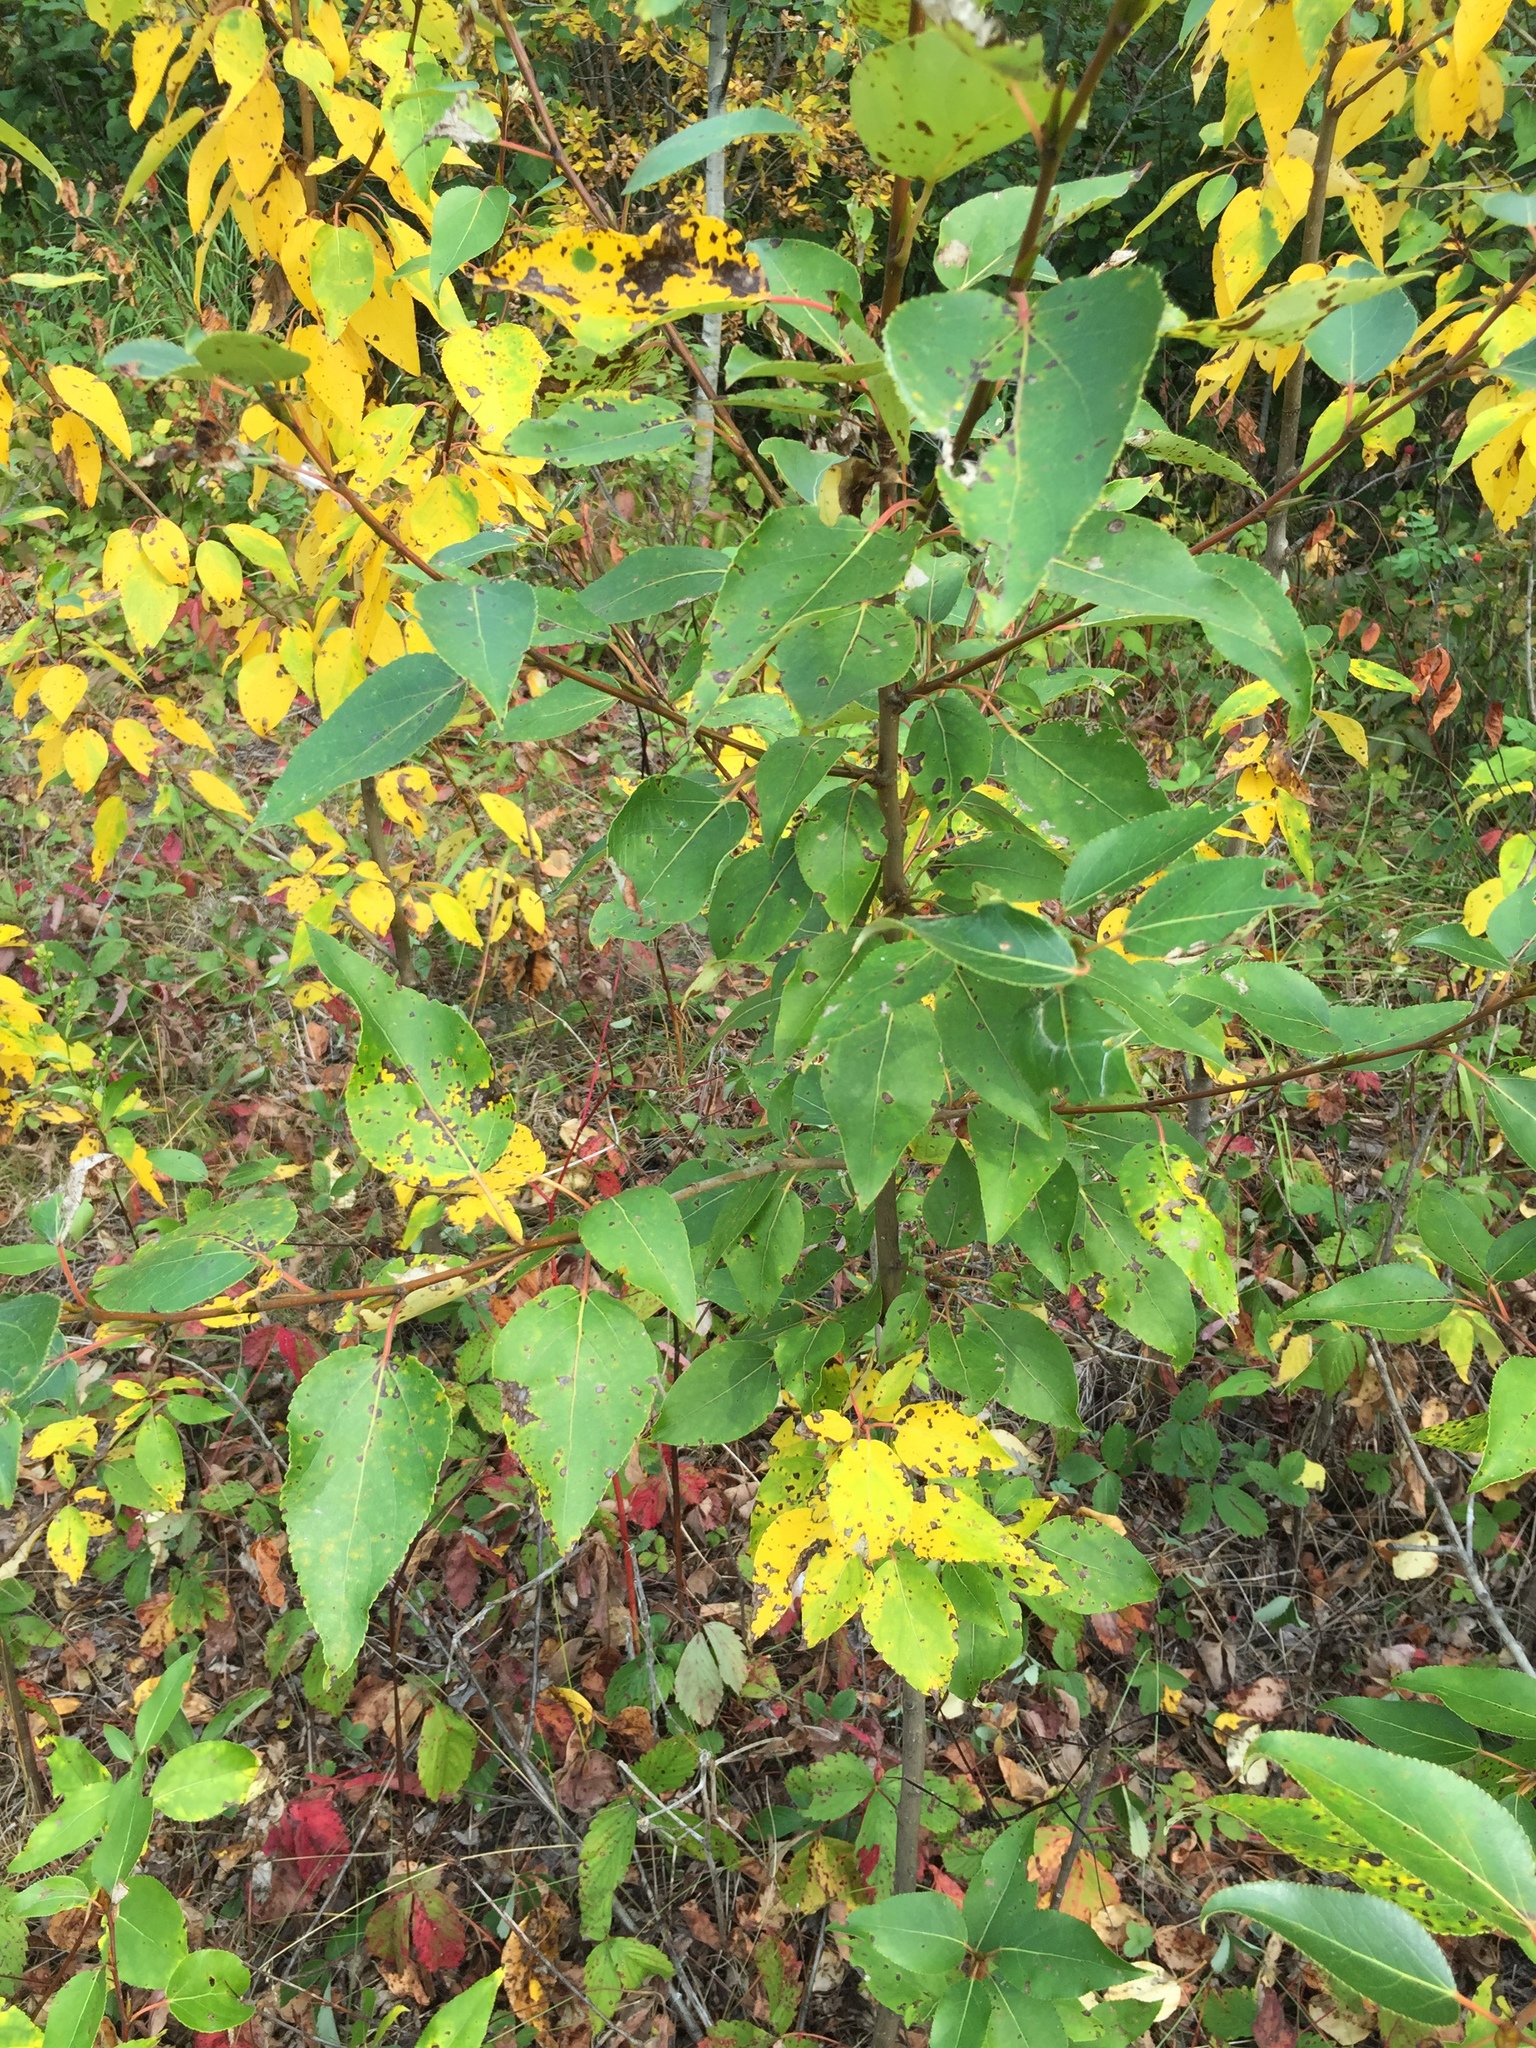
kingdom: Plantae
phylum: Tracheophyta
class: Magnoliopsida
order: Malpighiales
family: Salicaceae
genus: Populus
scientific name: Populus balsamifera
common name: Balsam poplar
